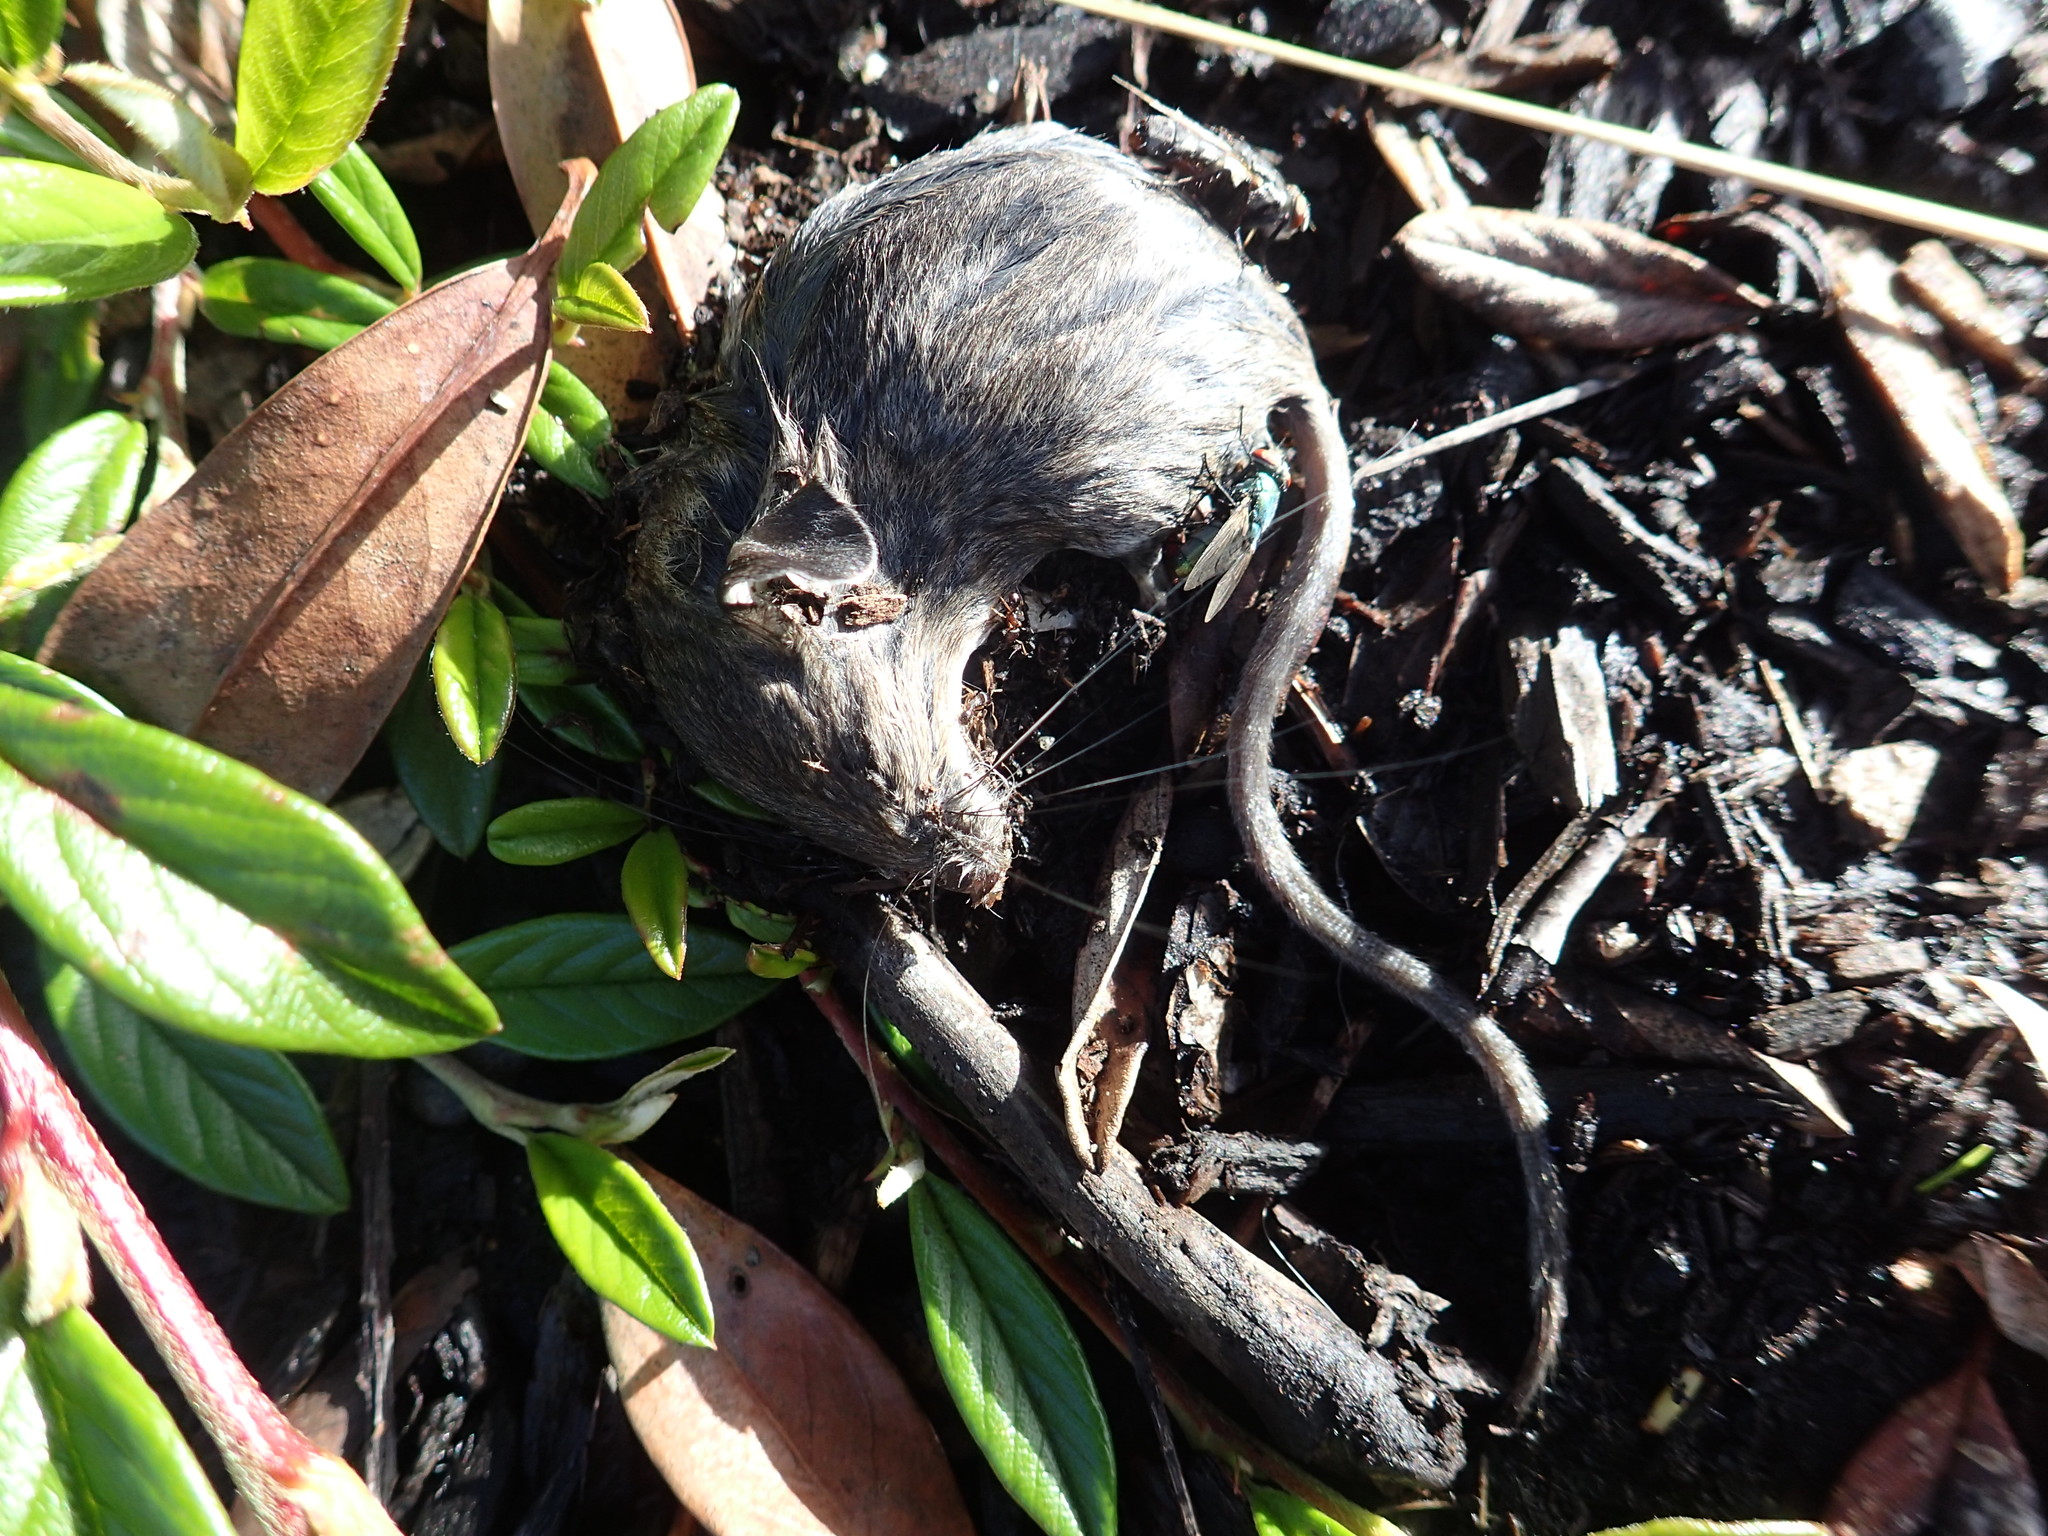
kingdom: Animalia
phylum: Chordata
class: Mammalia
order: Rodentia
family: Muridae
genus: Mus
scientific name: Mus musculus
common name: House mouse
